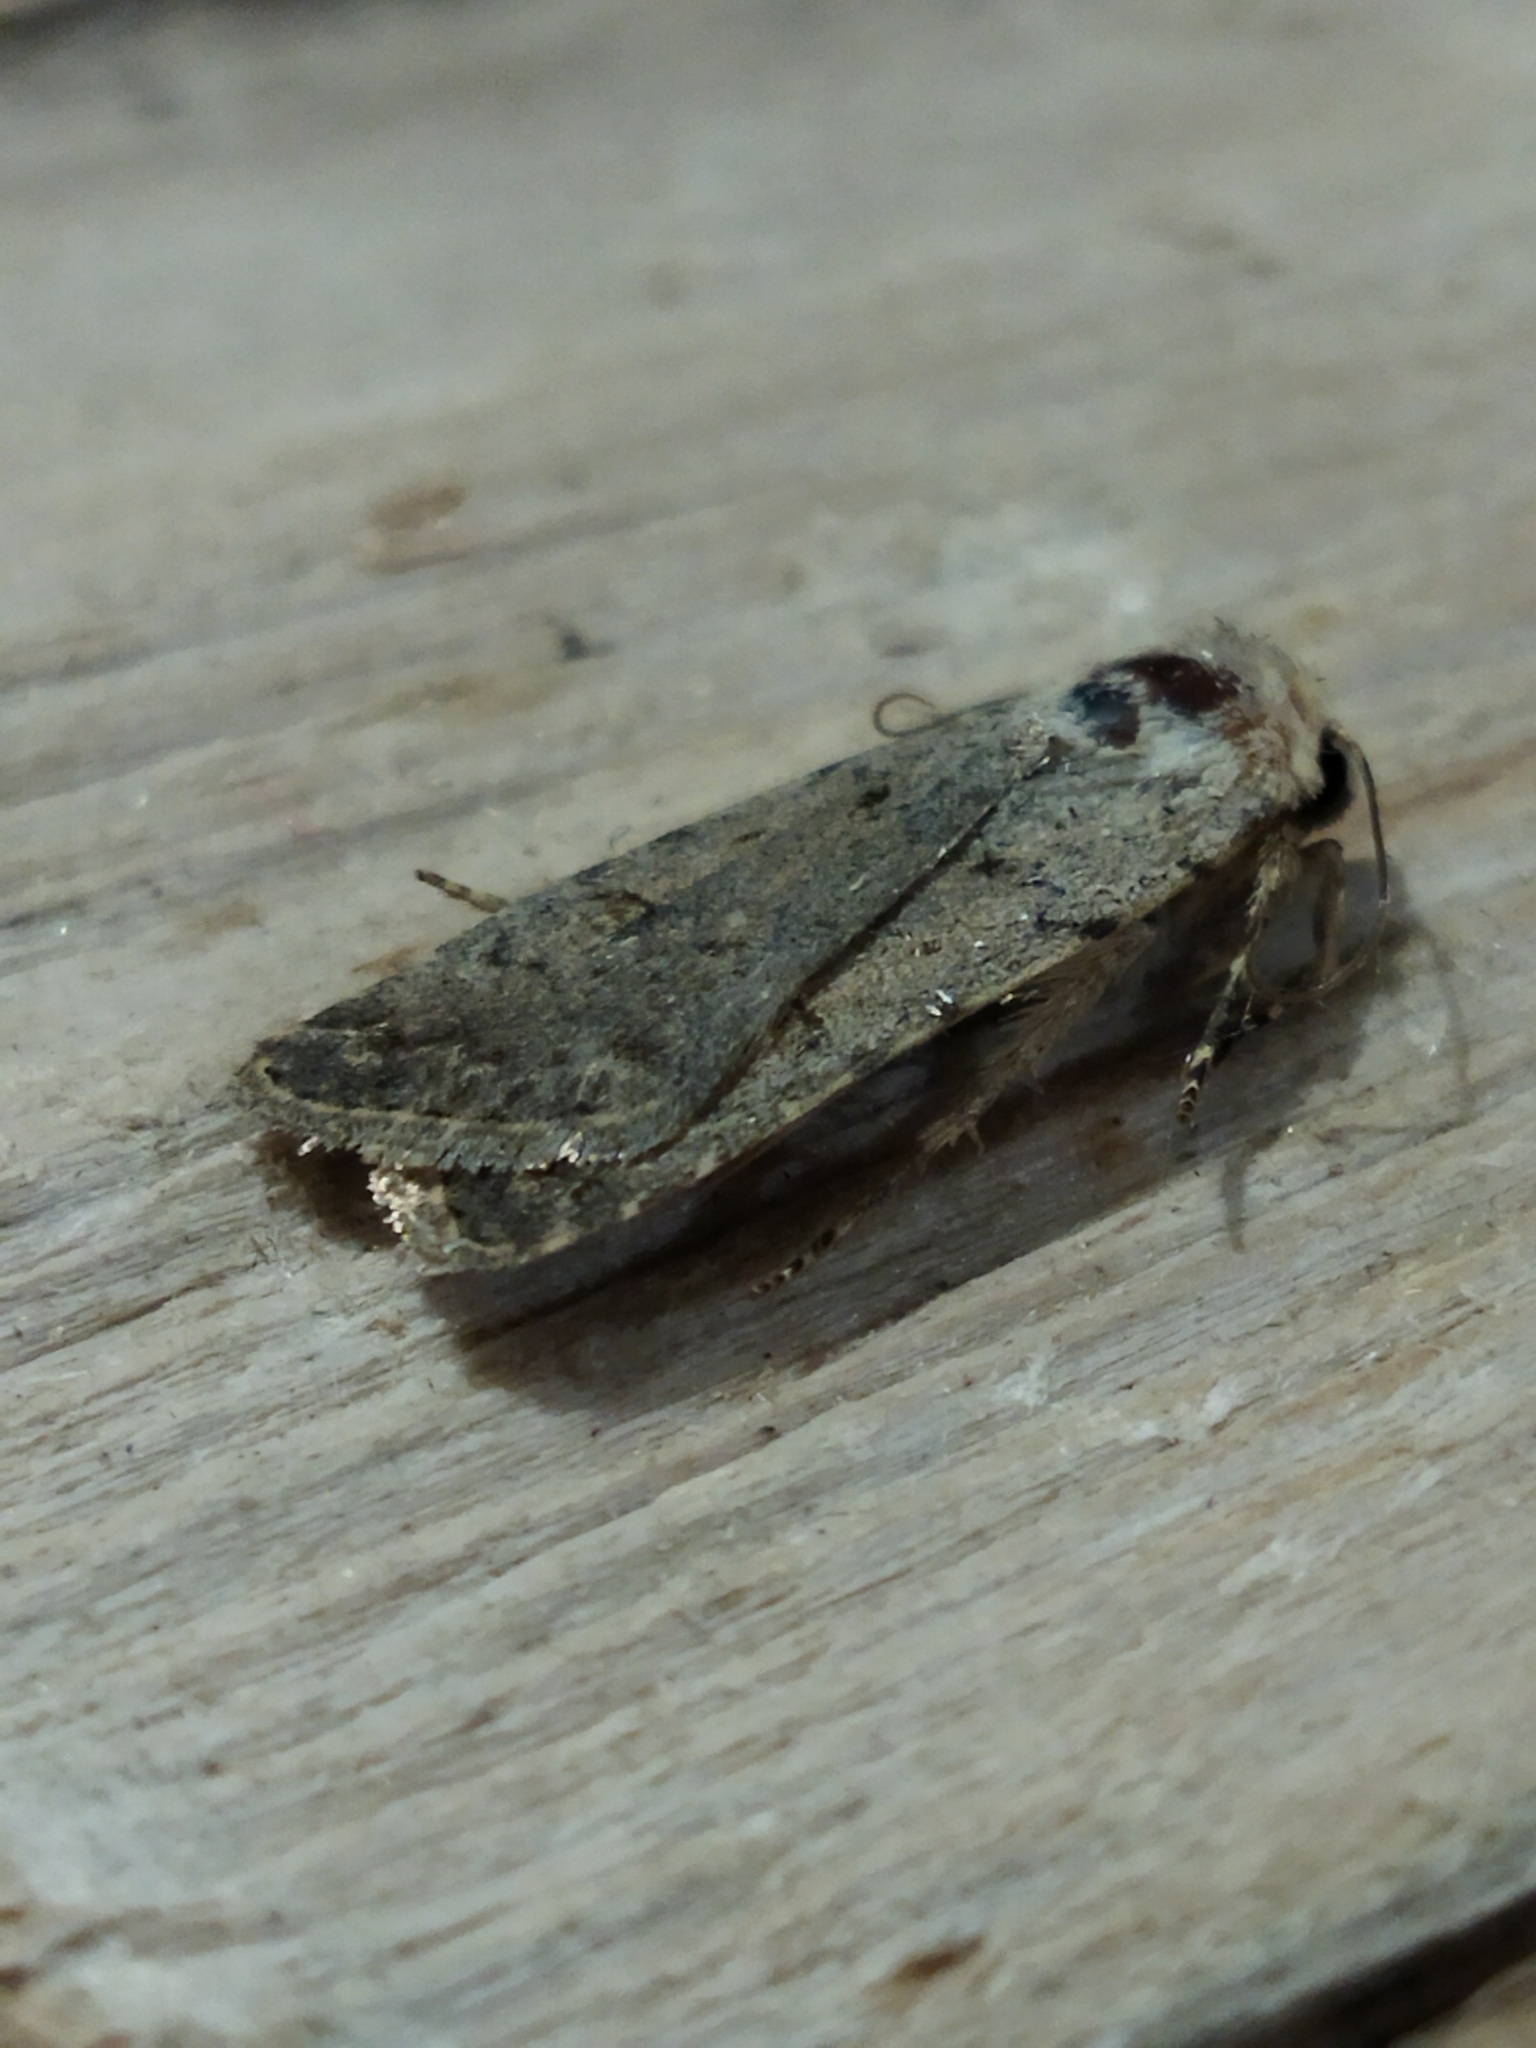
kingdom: Animalia
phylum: Arthropoda
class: Insecta
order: Lepidoptera
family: Noctuidae
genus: Caradrina
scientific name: Caradrina clavipalpis
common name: Pale mottled willow
